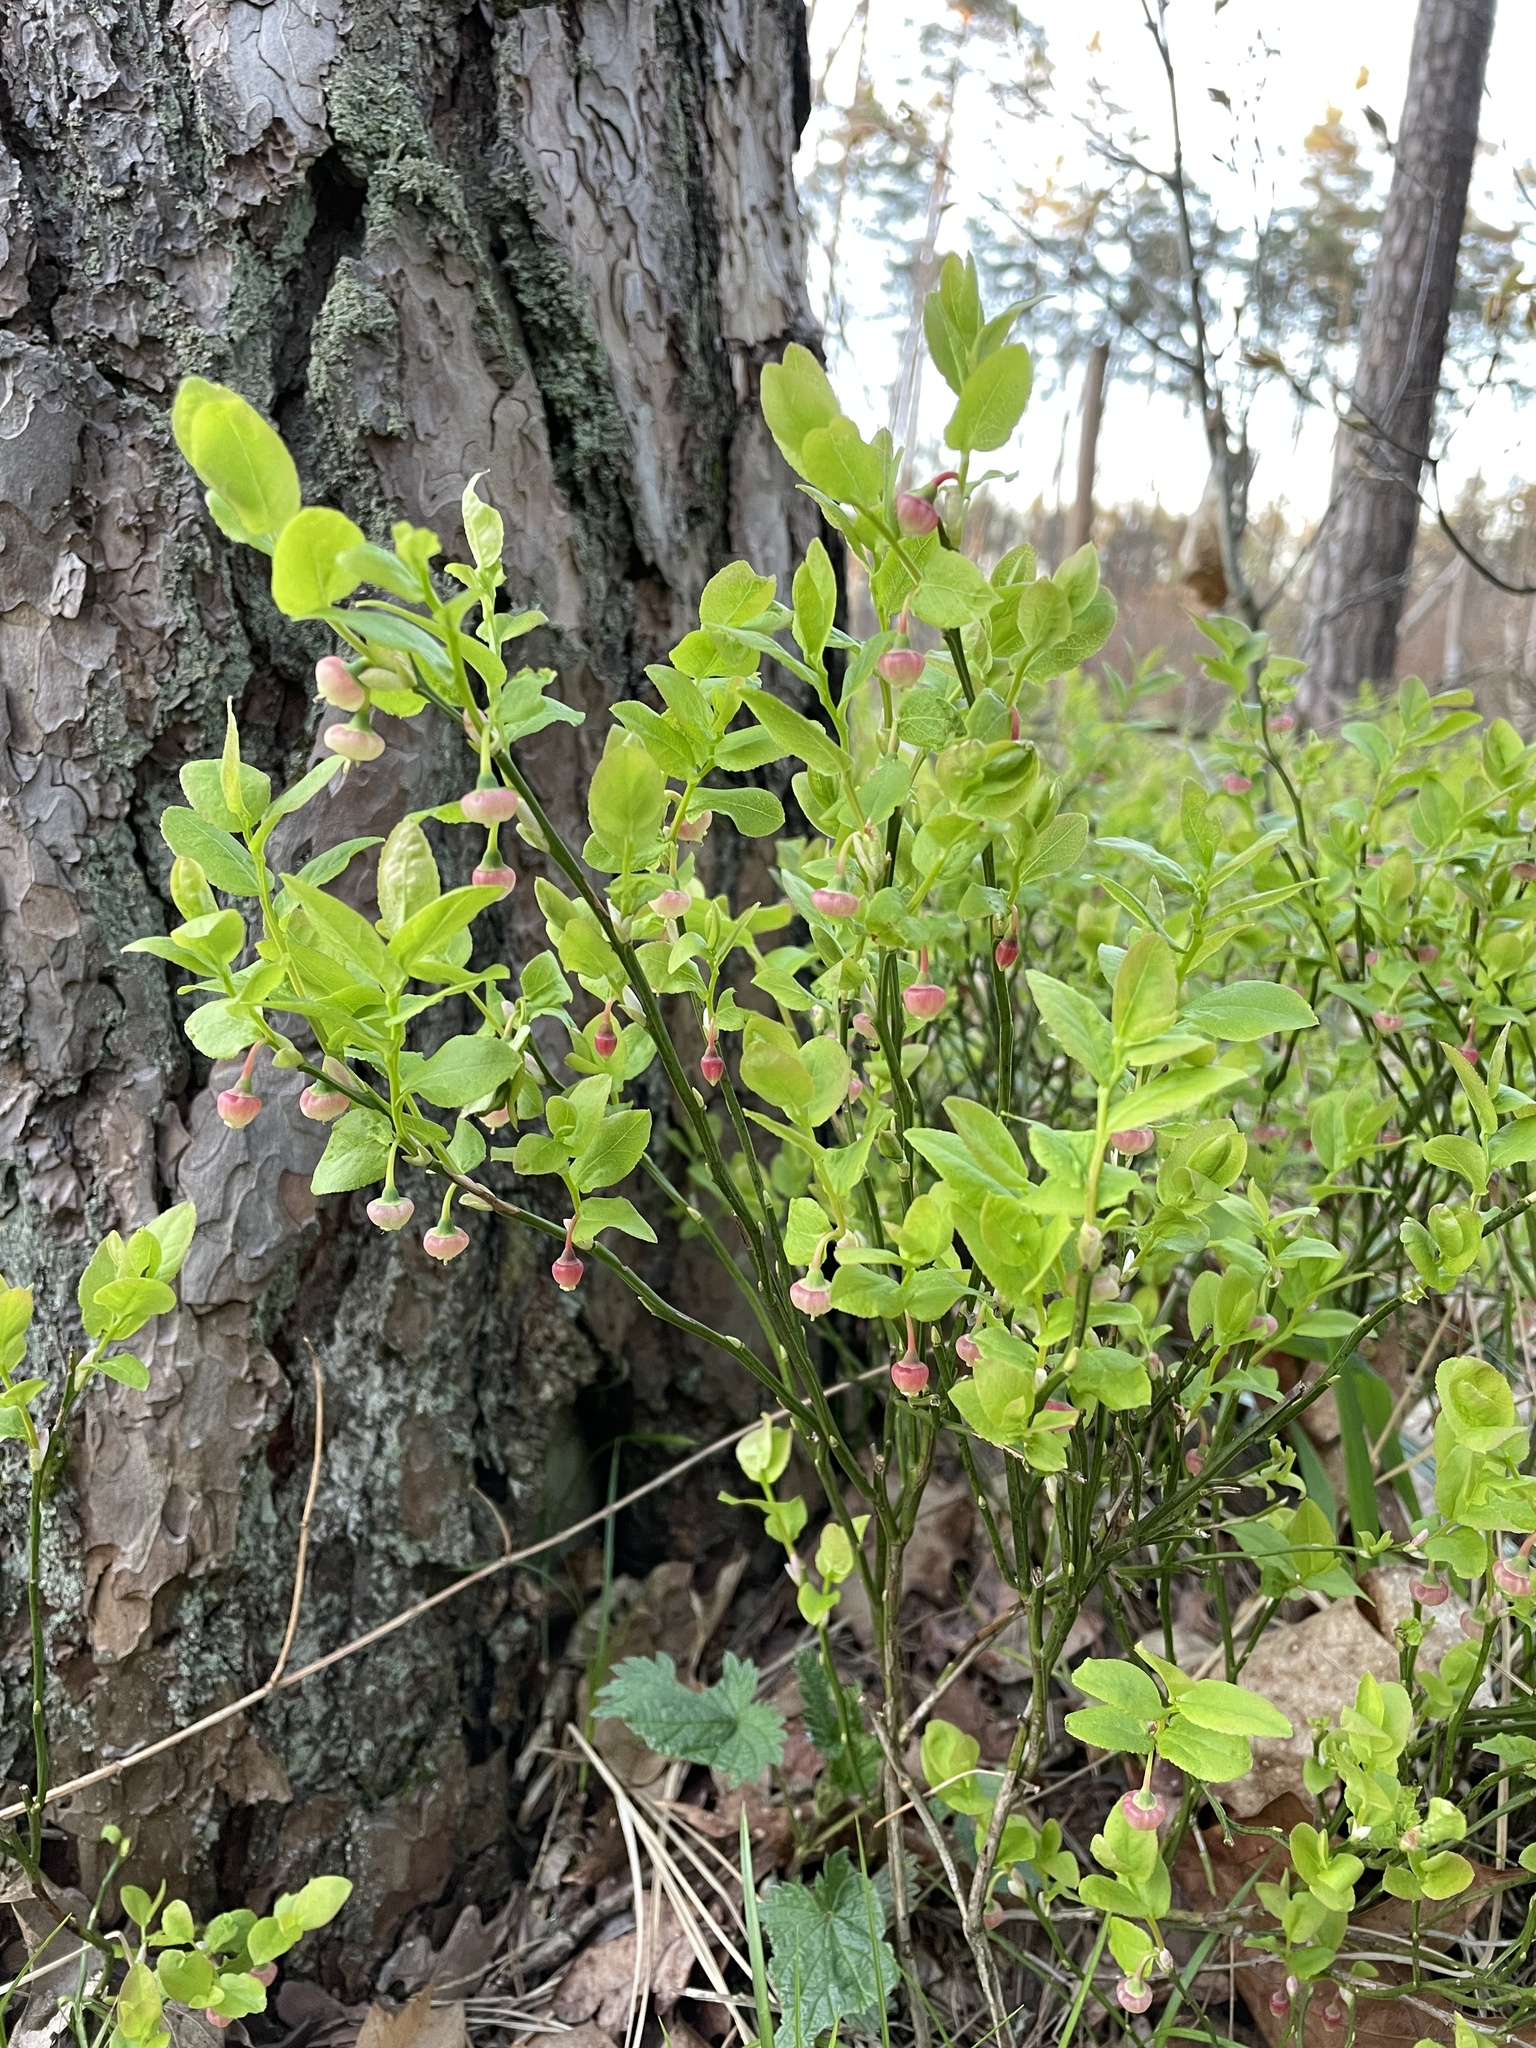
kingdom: Plantae
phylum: Tracheophyta
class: Magnoliopsida
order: Ericales
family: Ericaceae
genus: Vaccinium
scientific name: Vaccinium myrtillus
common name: Bilberry
